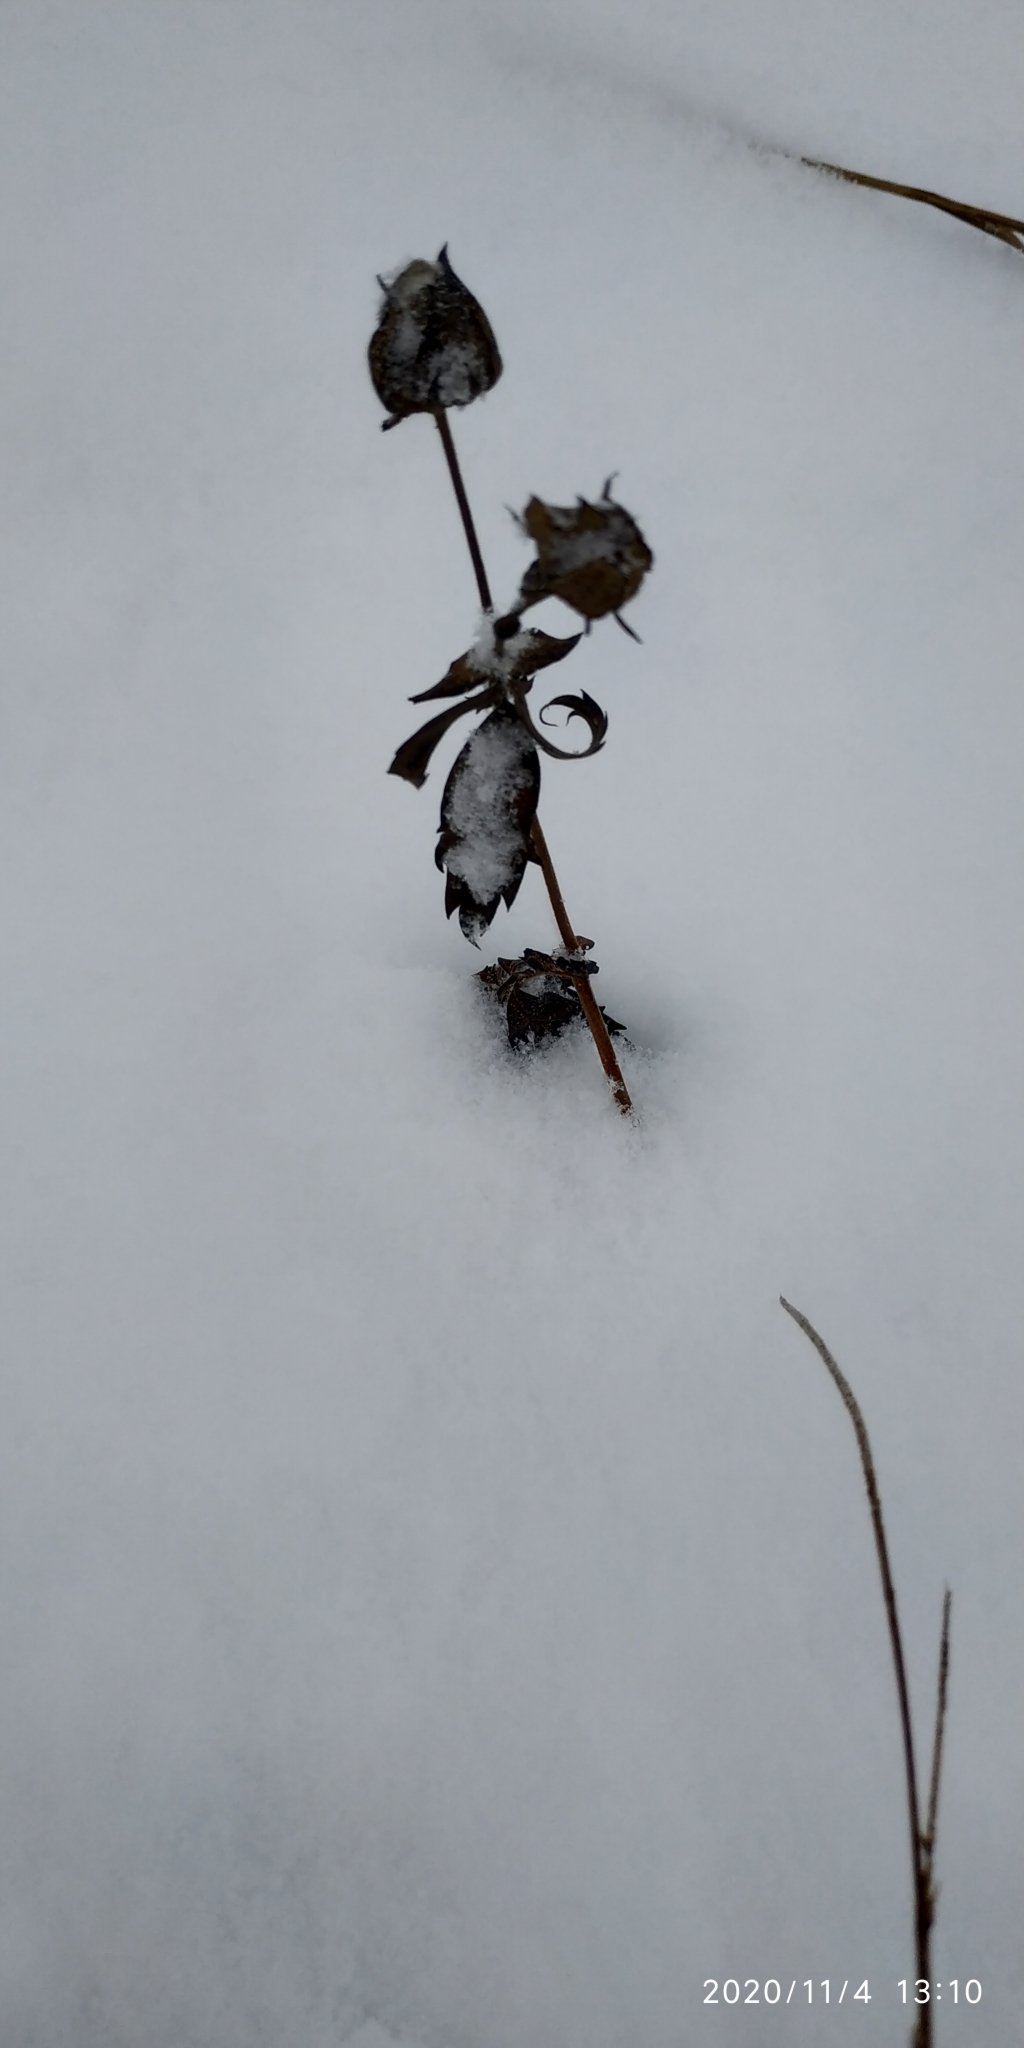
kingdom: Plantae
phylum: Tracheophyta
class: Magnoliopsida
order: Rosales
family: Rosaceae
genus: Comarum
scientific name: Comarum palustre
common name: Marsh cinquefoil
